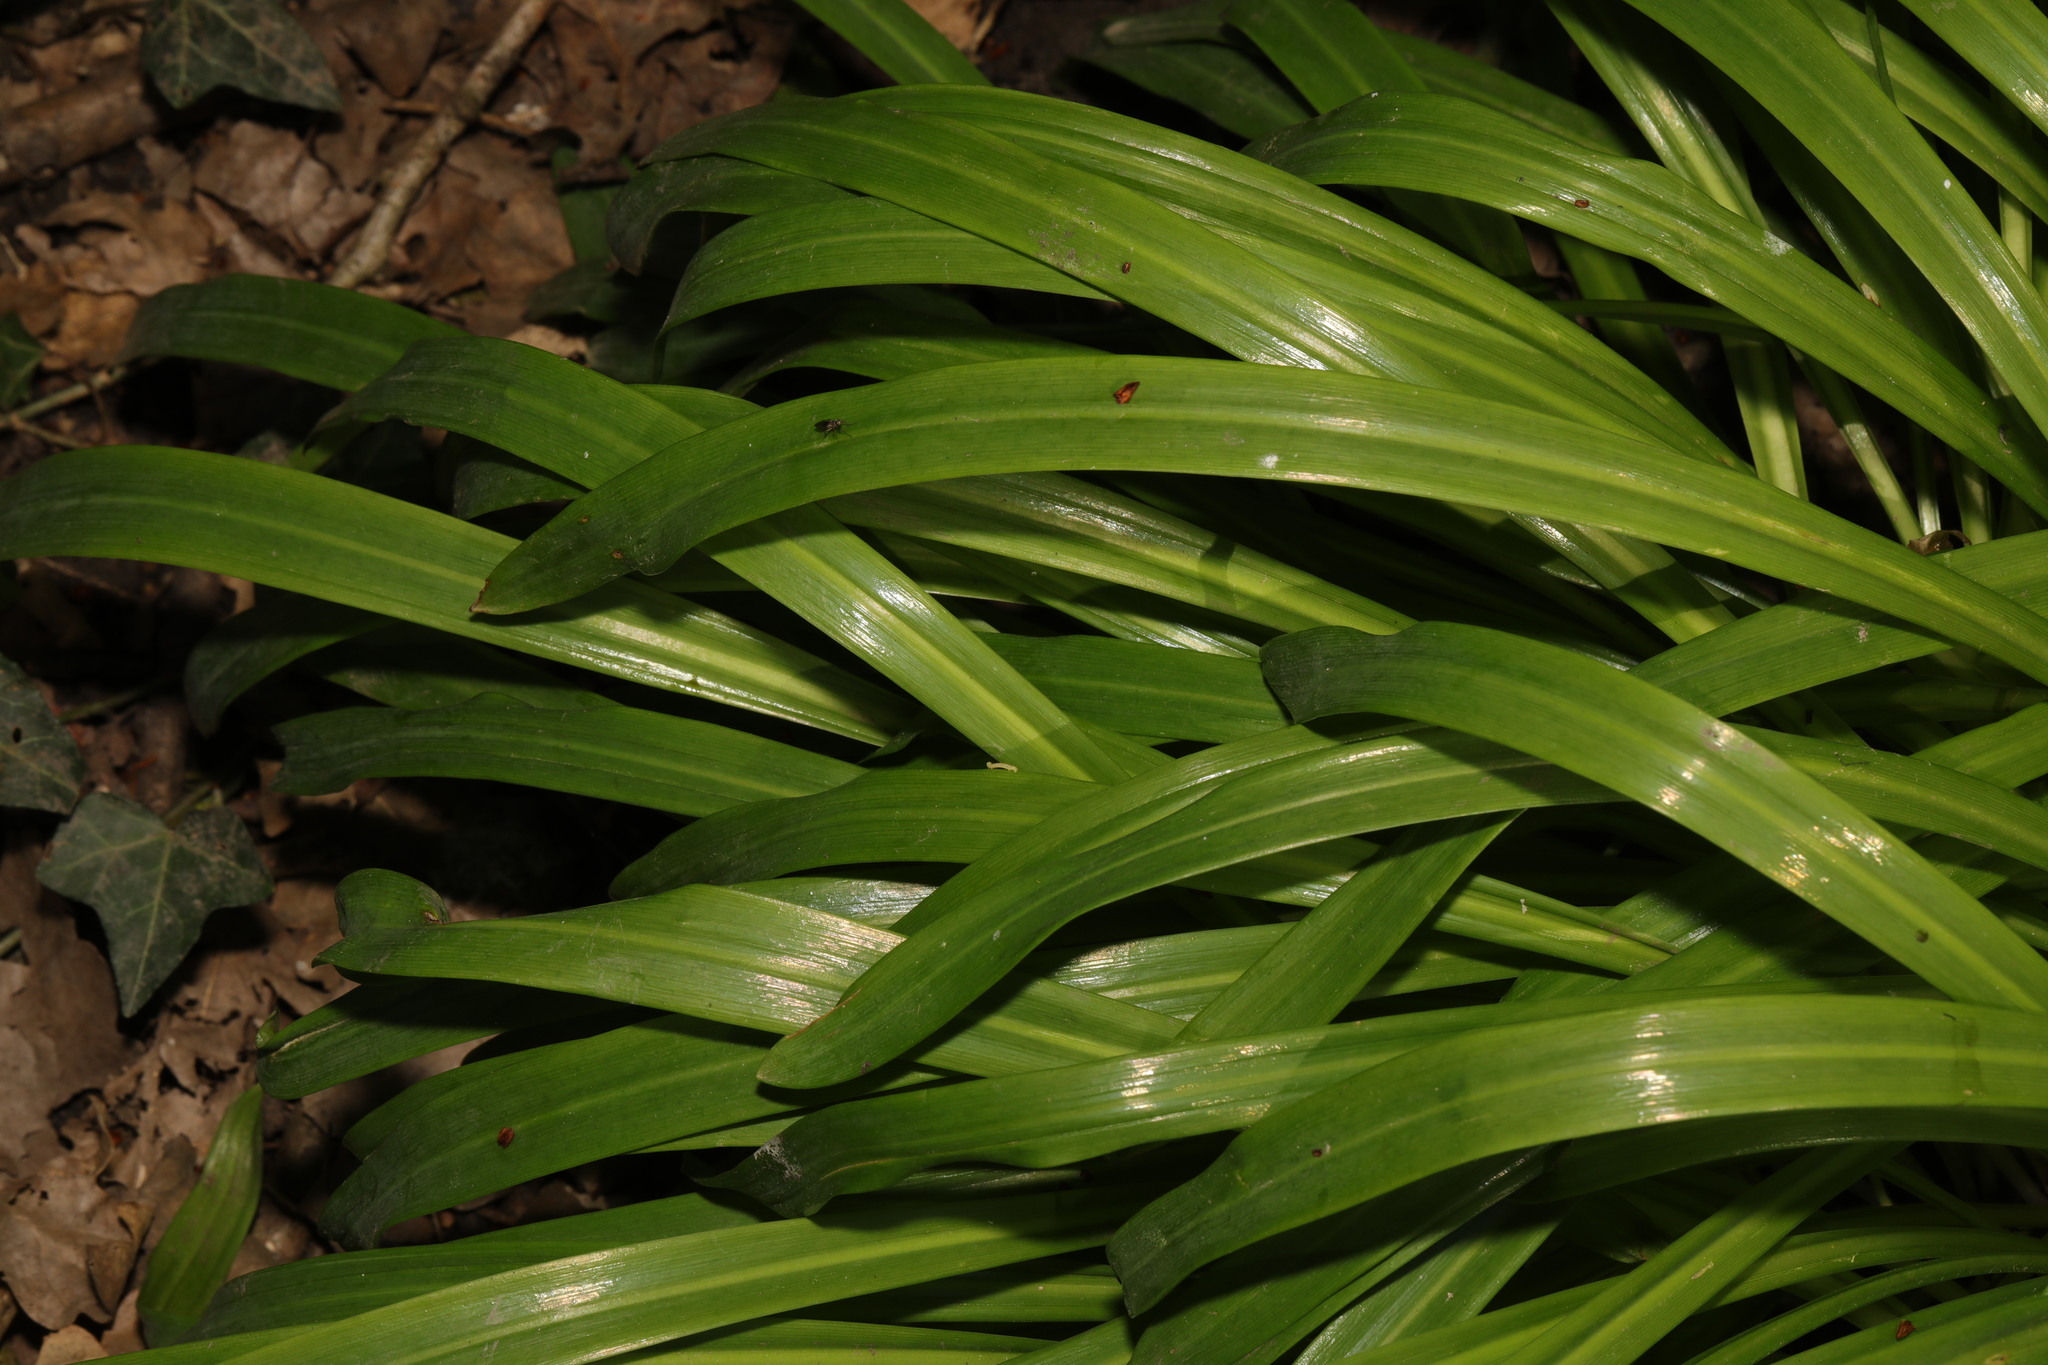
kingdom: Plantae
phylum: Tracheophyta
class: Liliopsida
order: Asparagales
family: Asparagaceae
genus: Hyacinthoides
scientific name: Hyacinthoides massartiana
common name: Hyacinthoides
